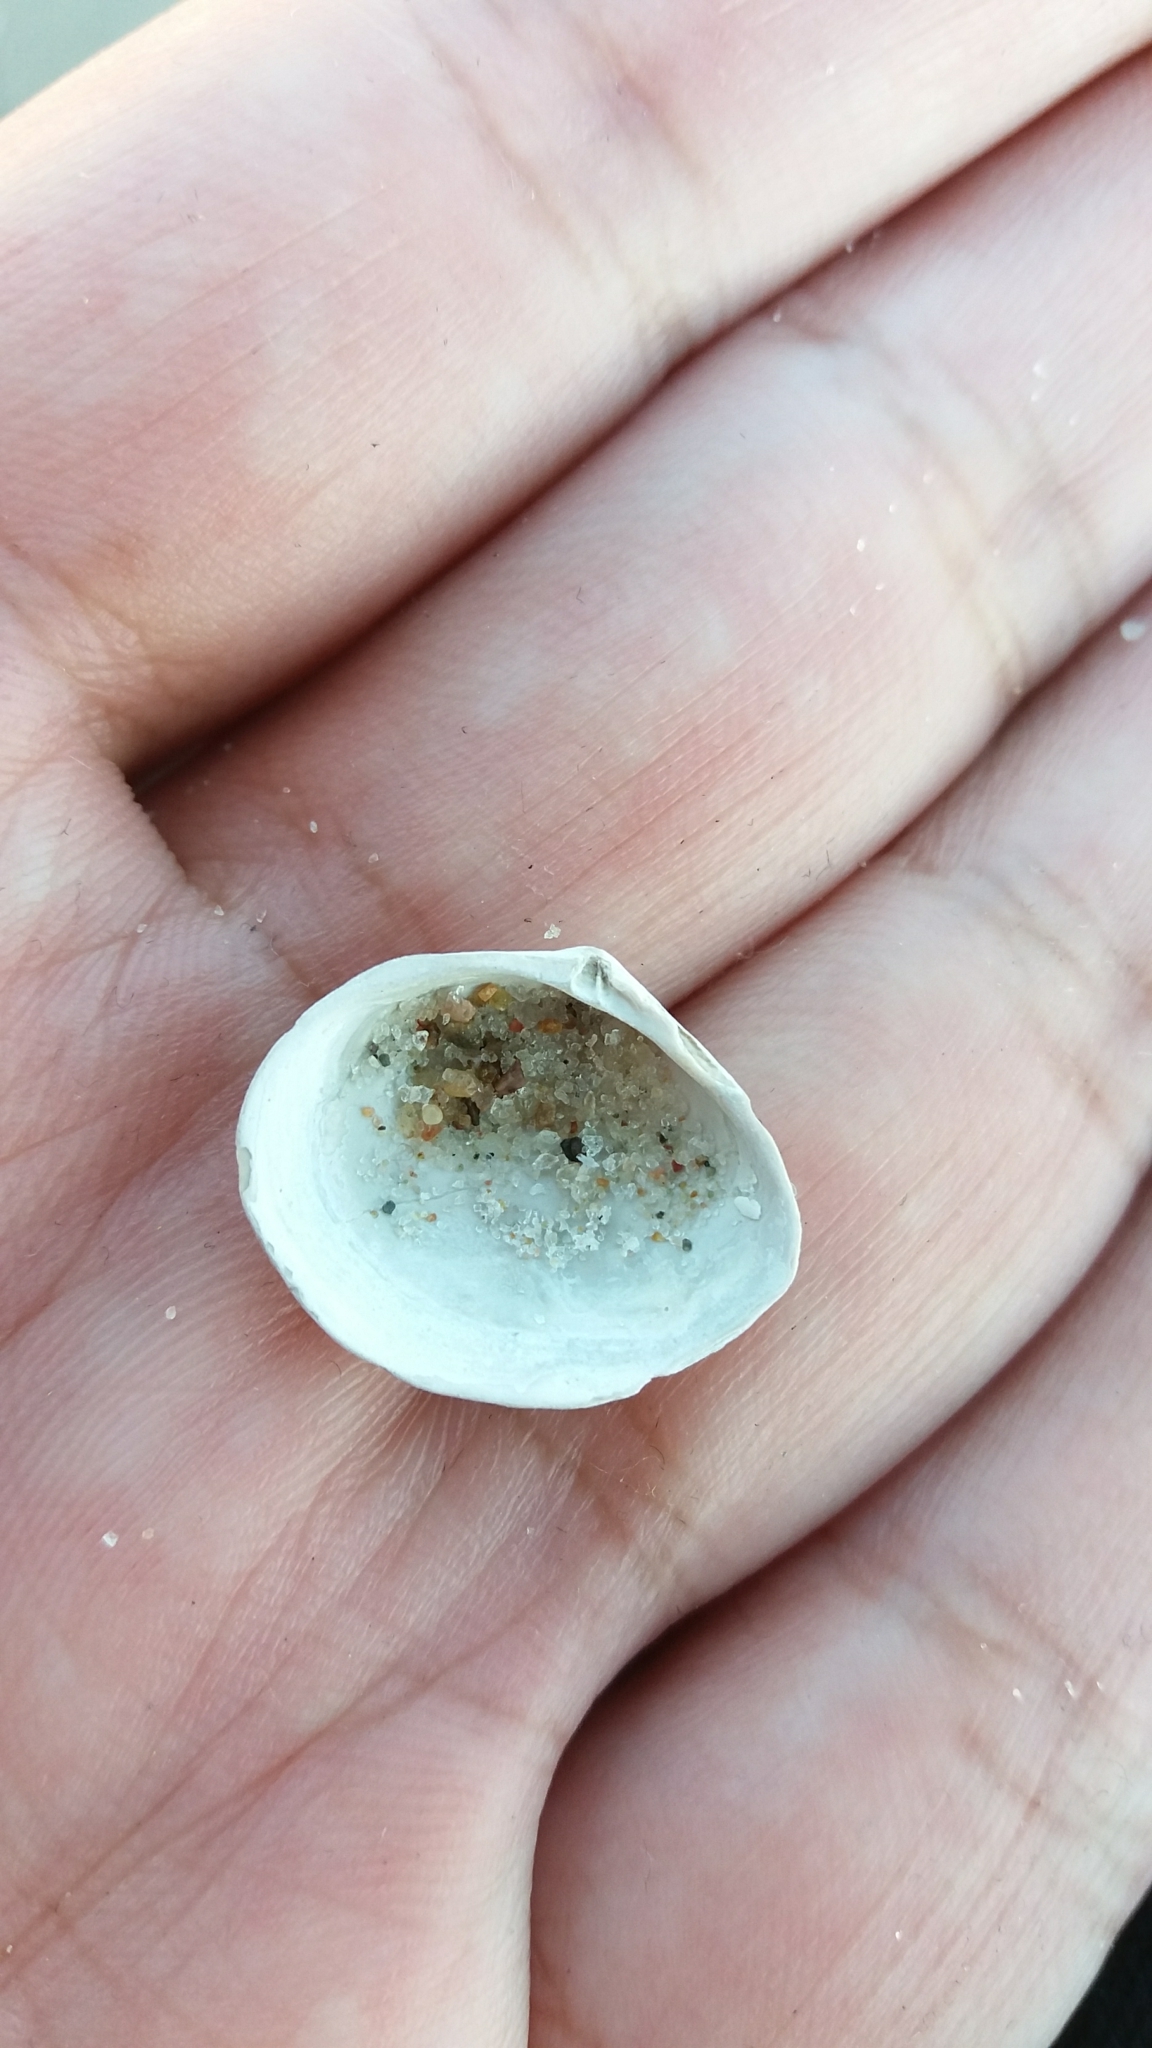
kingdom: Animalia
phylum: Mollusca
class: Bivalvia
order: Cardiida
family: Tellinidae
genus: Macoma
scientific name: Macoma balthica
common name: Baltic tellin
